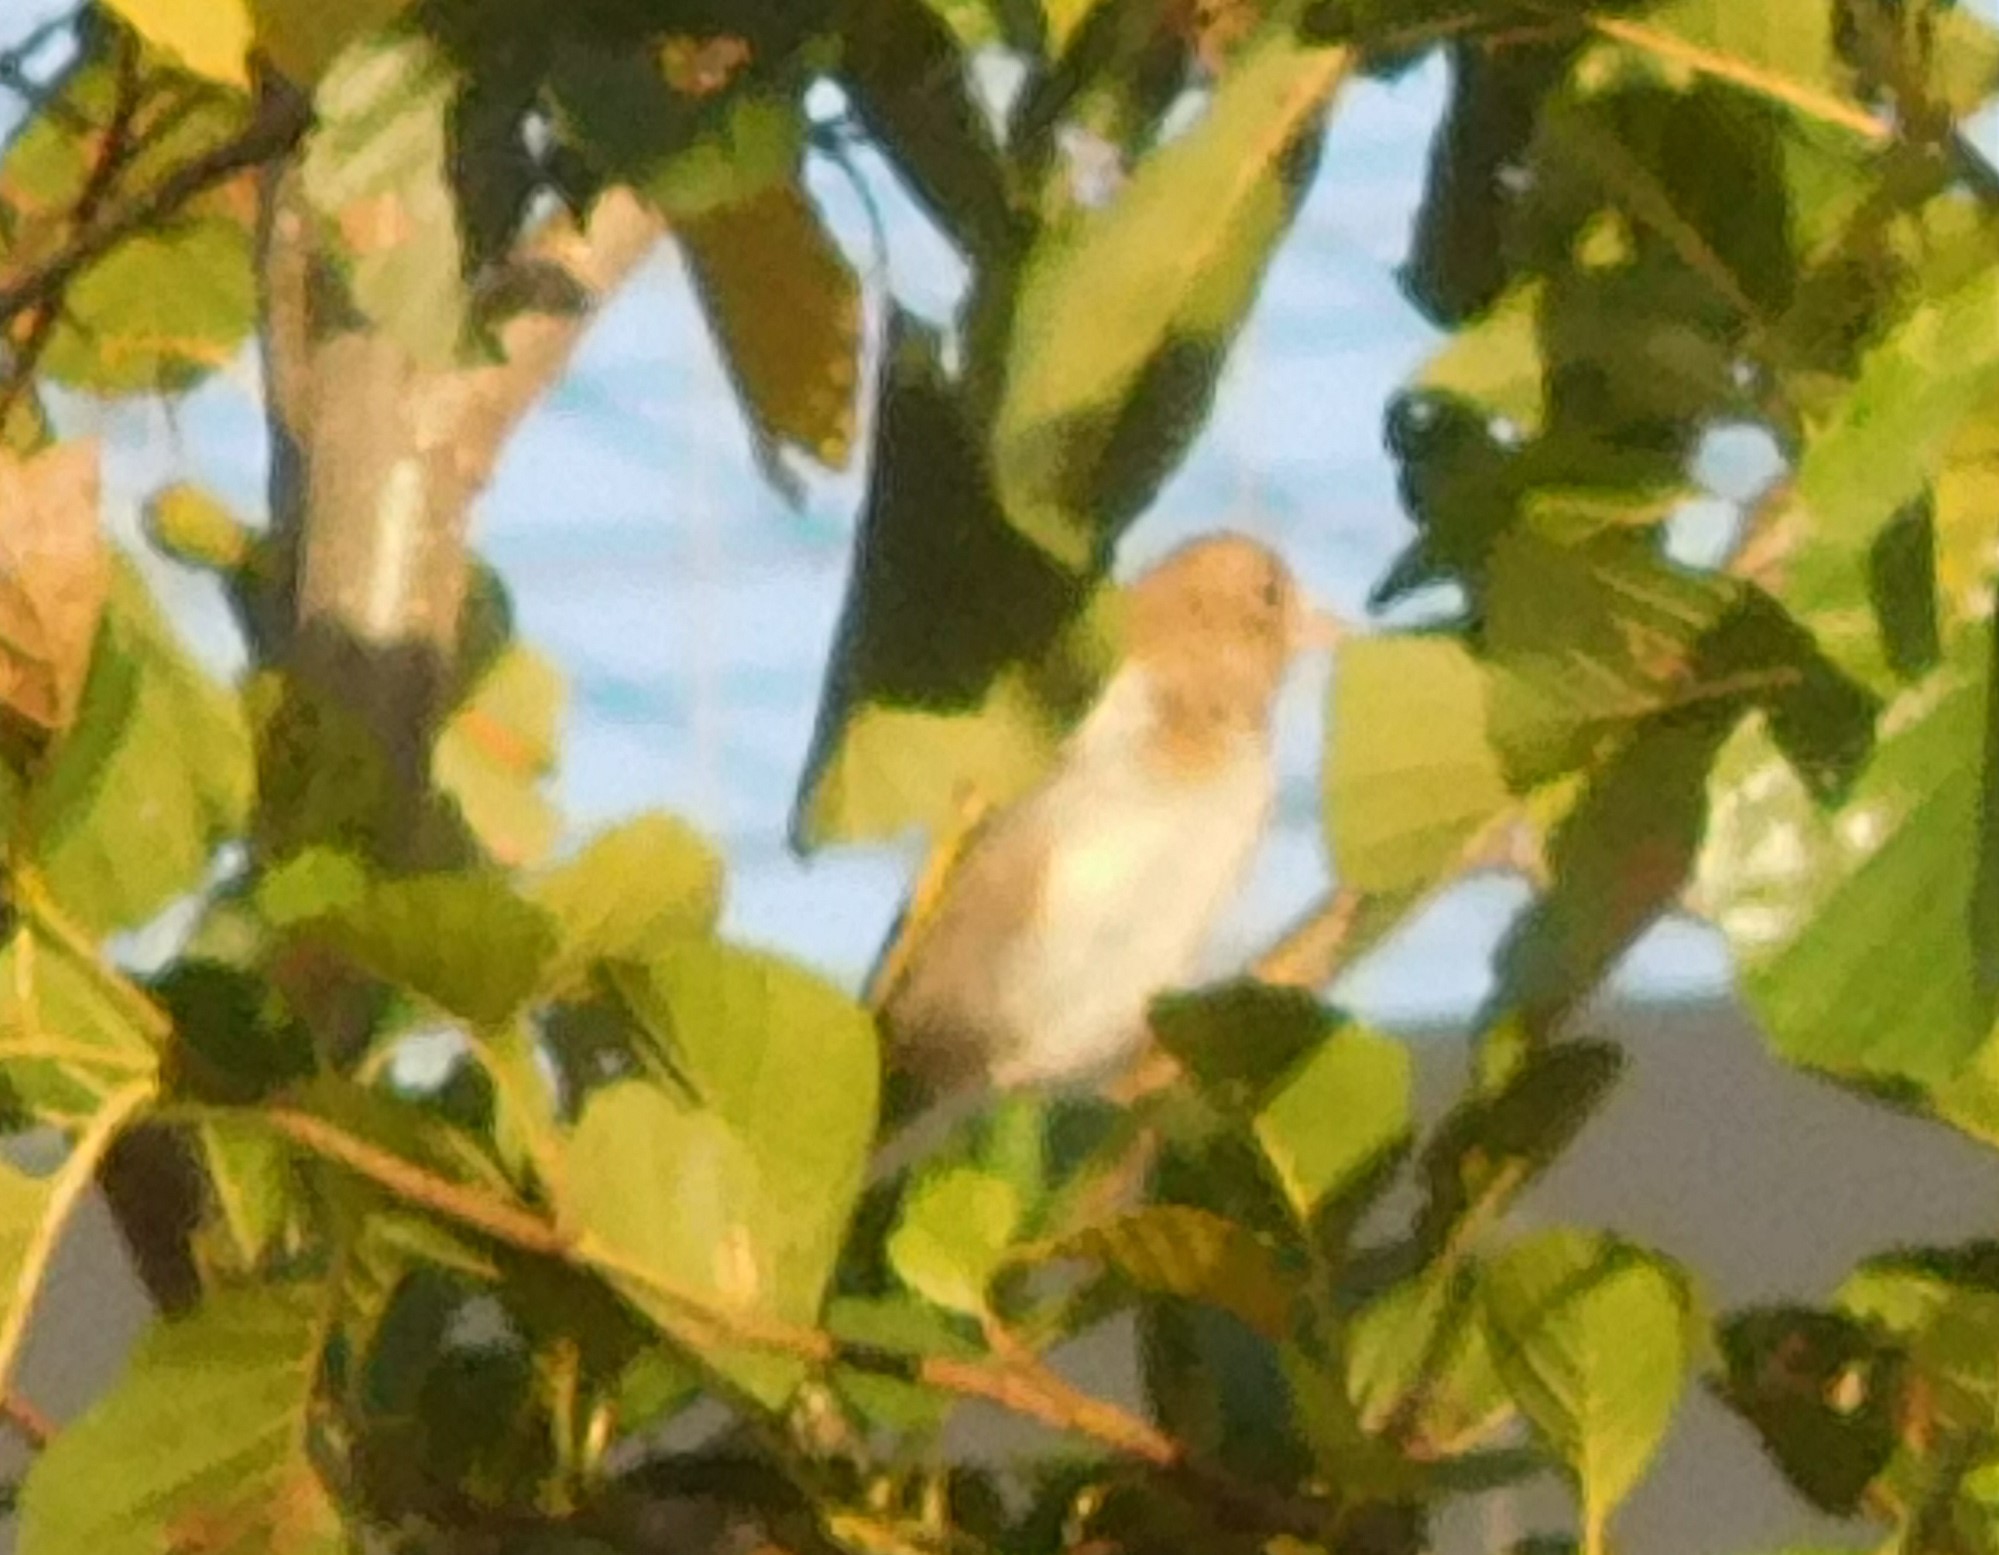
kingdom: Animalia
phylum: Chordata
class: Aves
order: Passeriformes
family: Fringillidae
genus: Carduelis
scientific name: Carduelis carduelis
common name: European goldfinch
